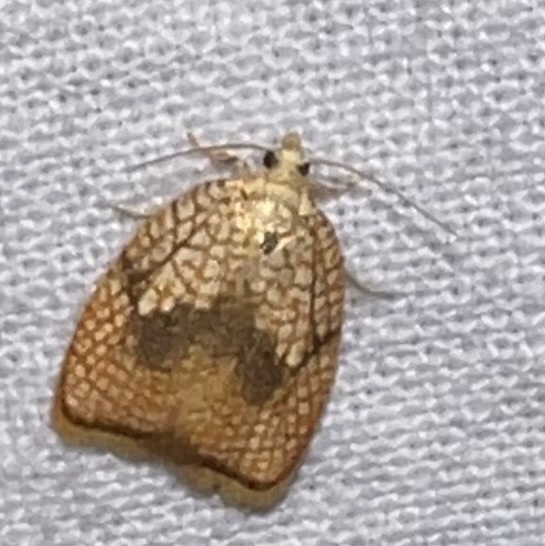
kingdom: Animalia
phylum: Arthropoda
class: Insecta
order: Lepidoptera
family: Tortricidae
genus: Acleris
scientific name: Acleris forsskaleana
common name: Maple button
